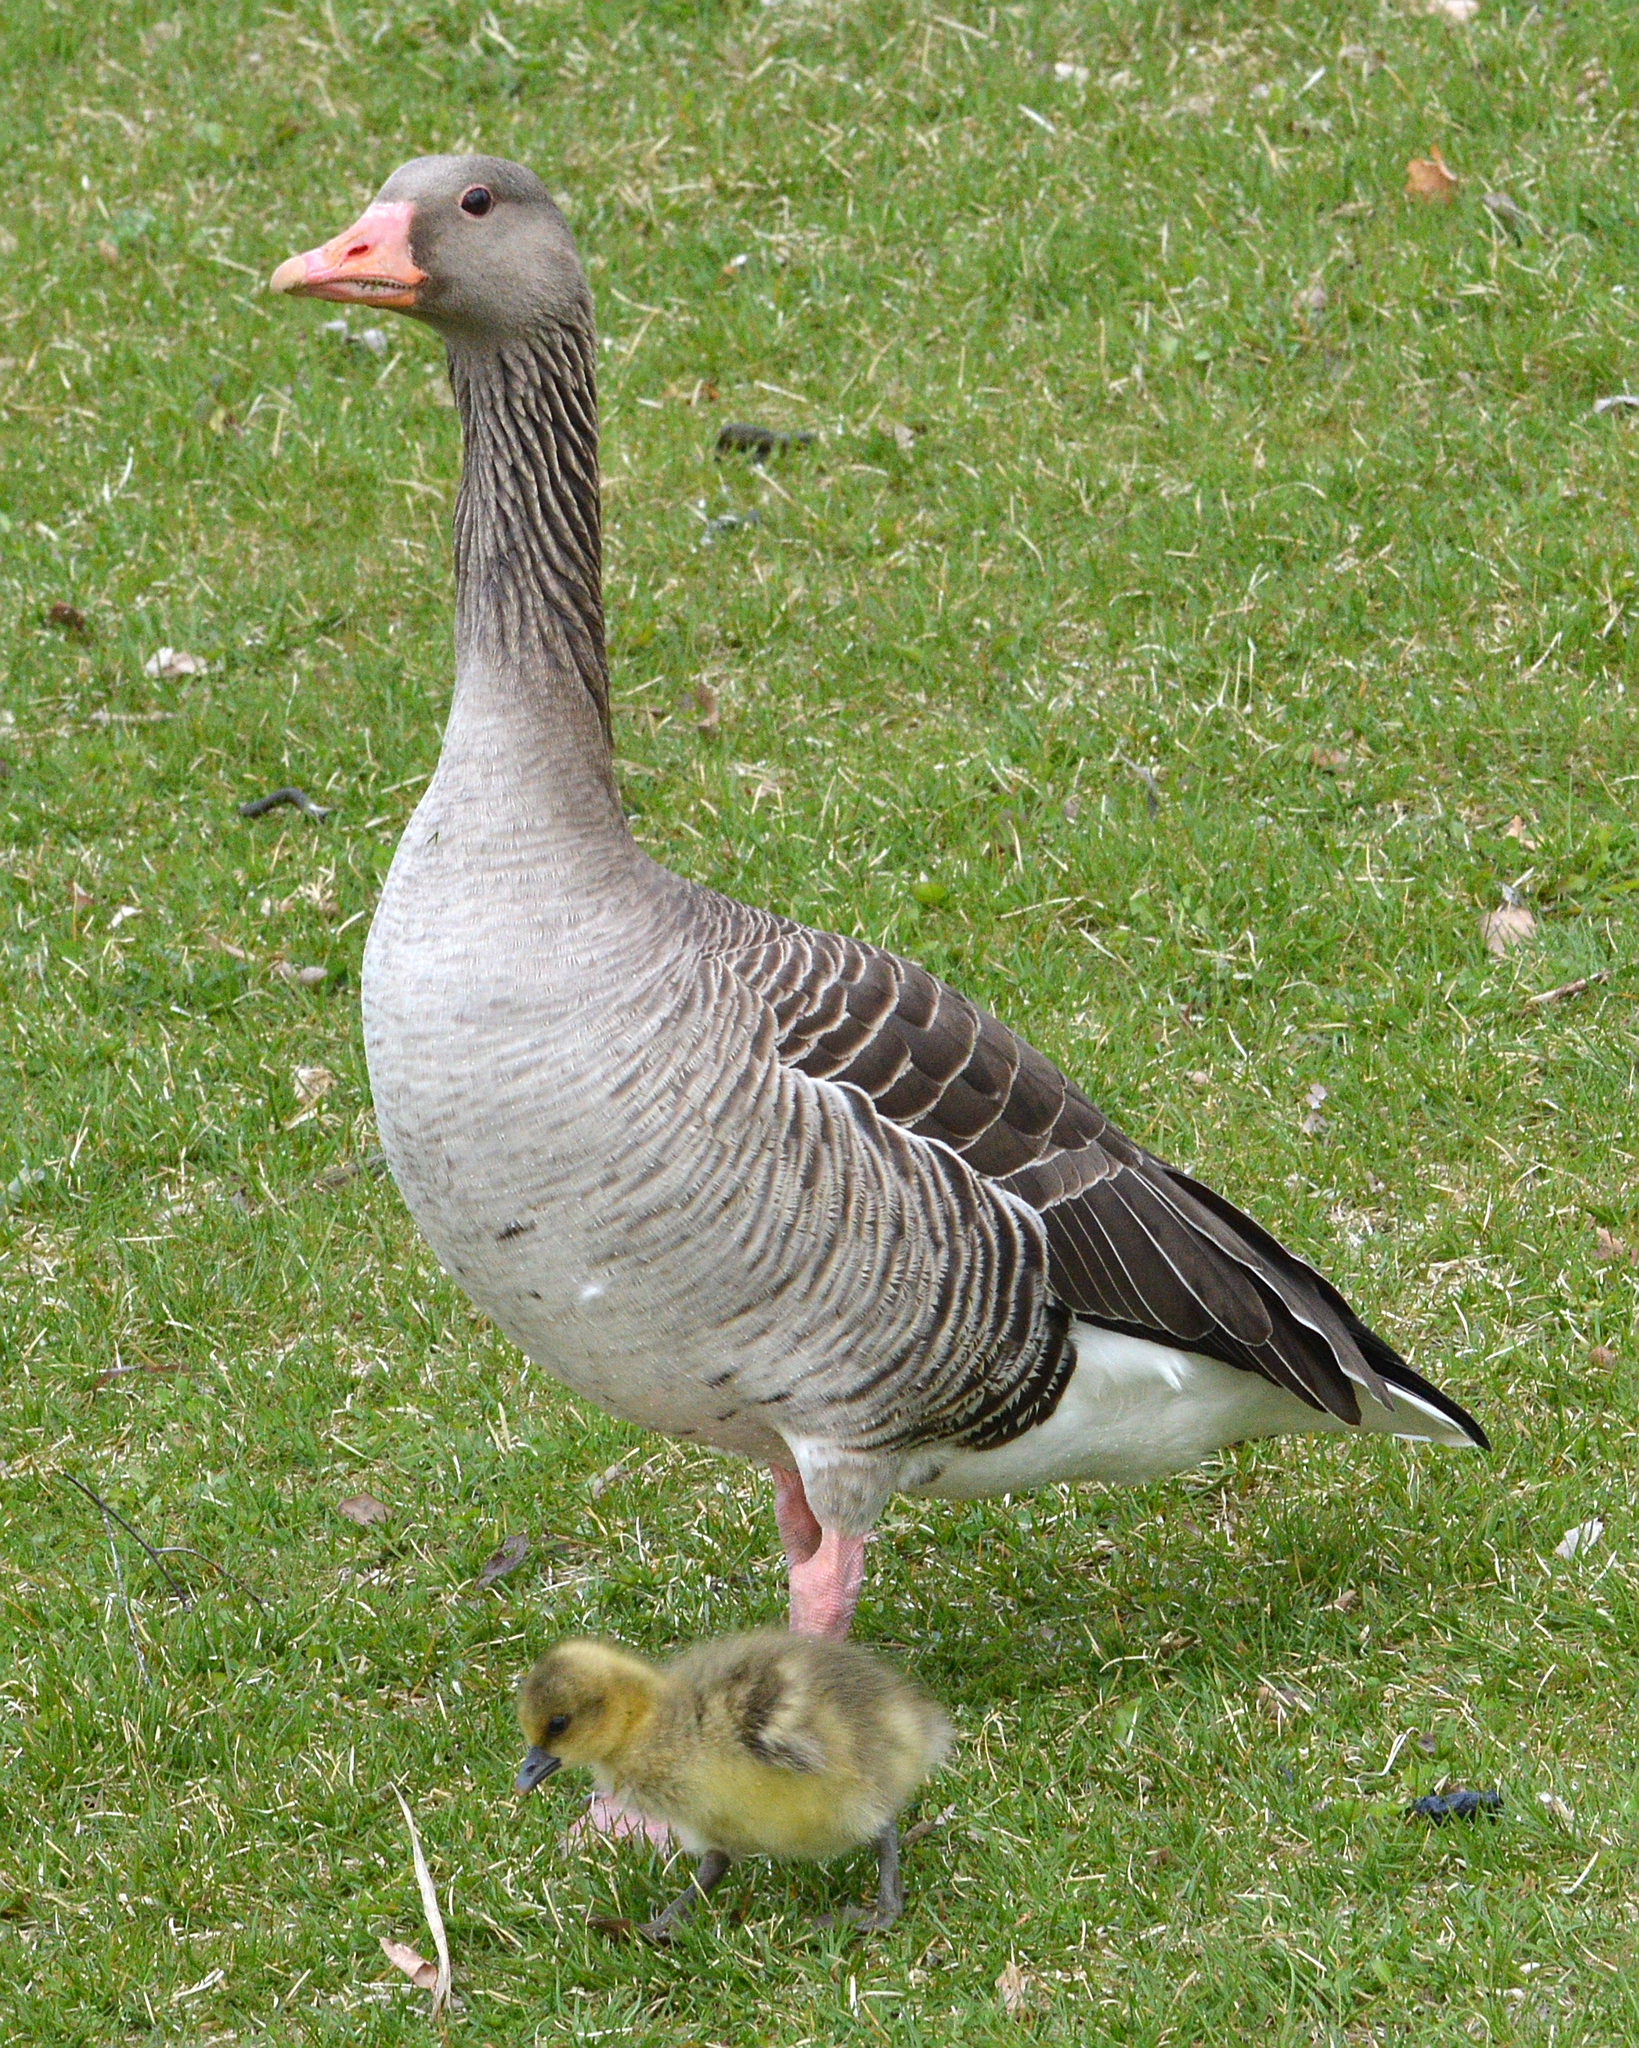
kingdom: Animalia
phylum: Chordata
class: Aves
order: Anseriformes
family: Anatidae
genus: Anser
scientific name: Anser anser
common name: Greylag goose
